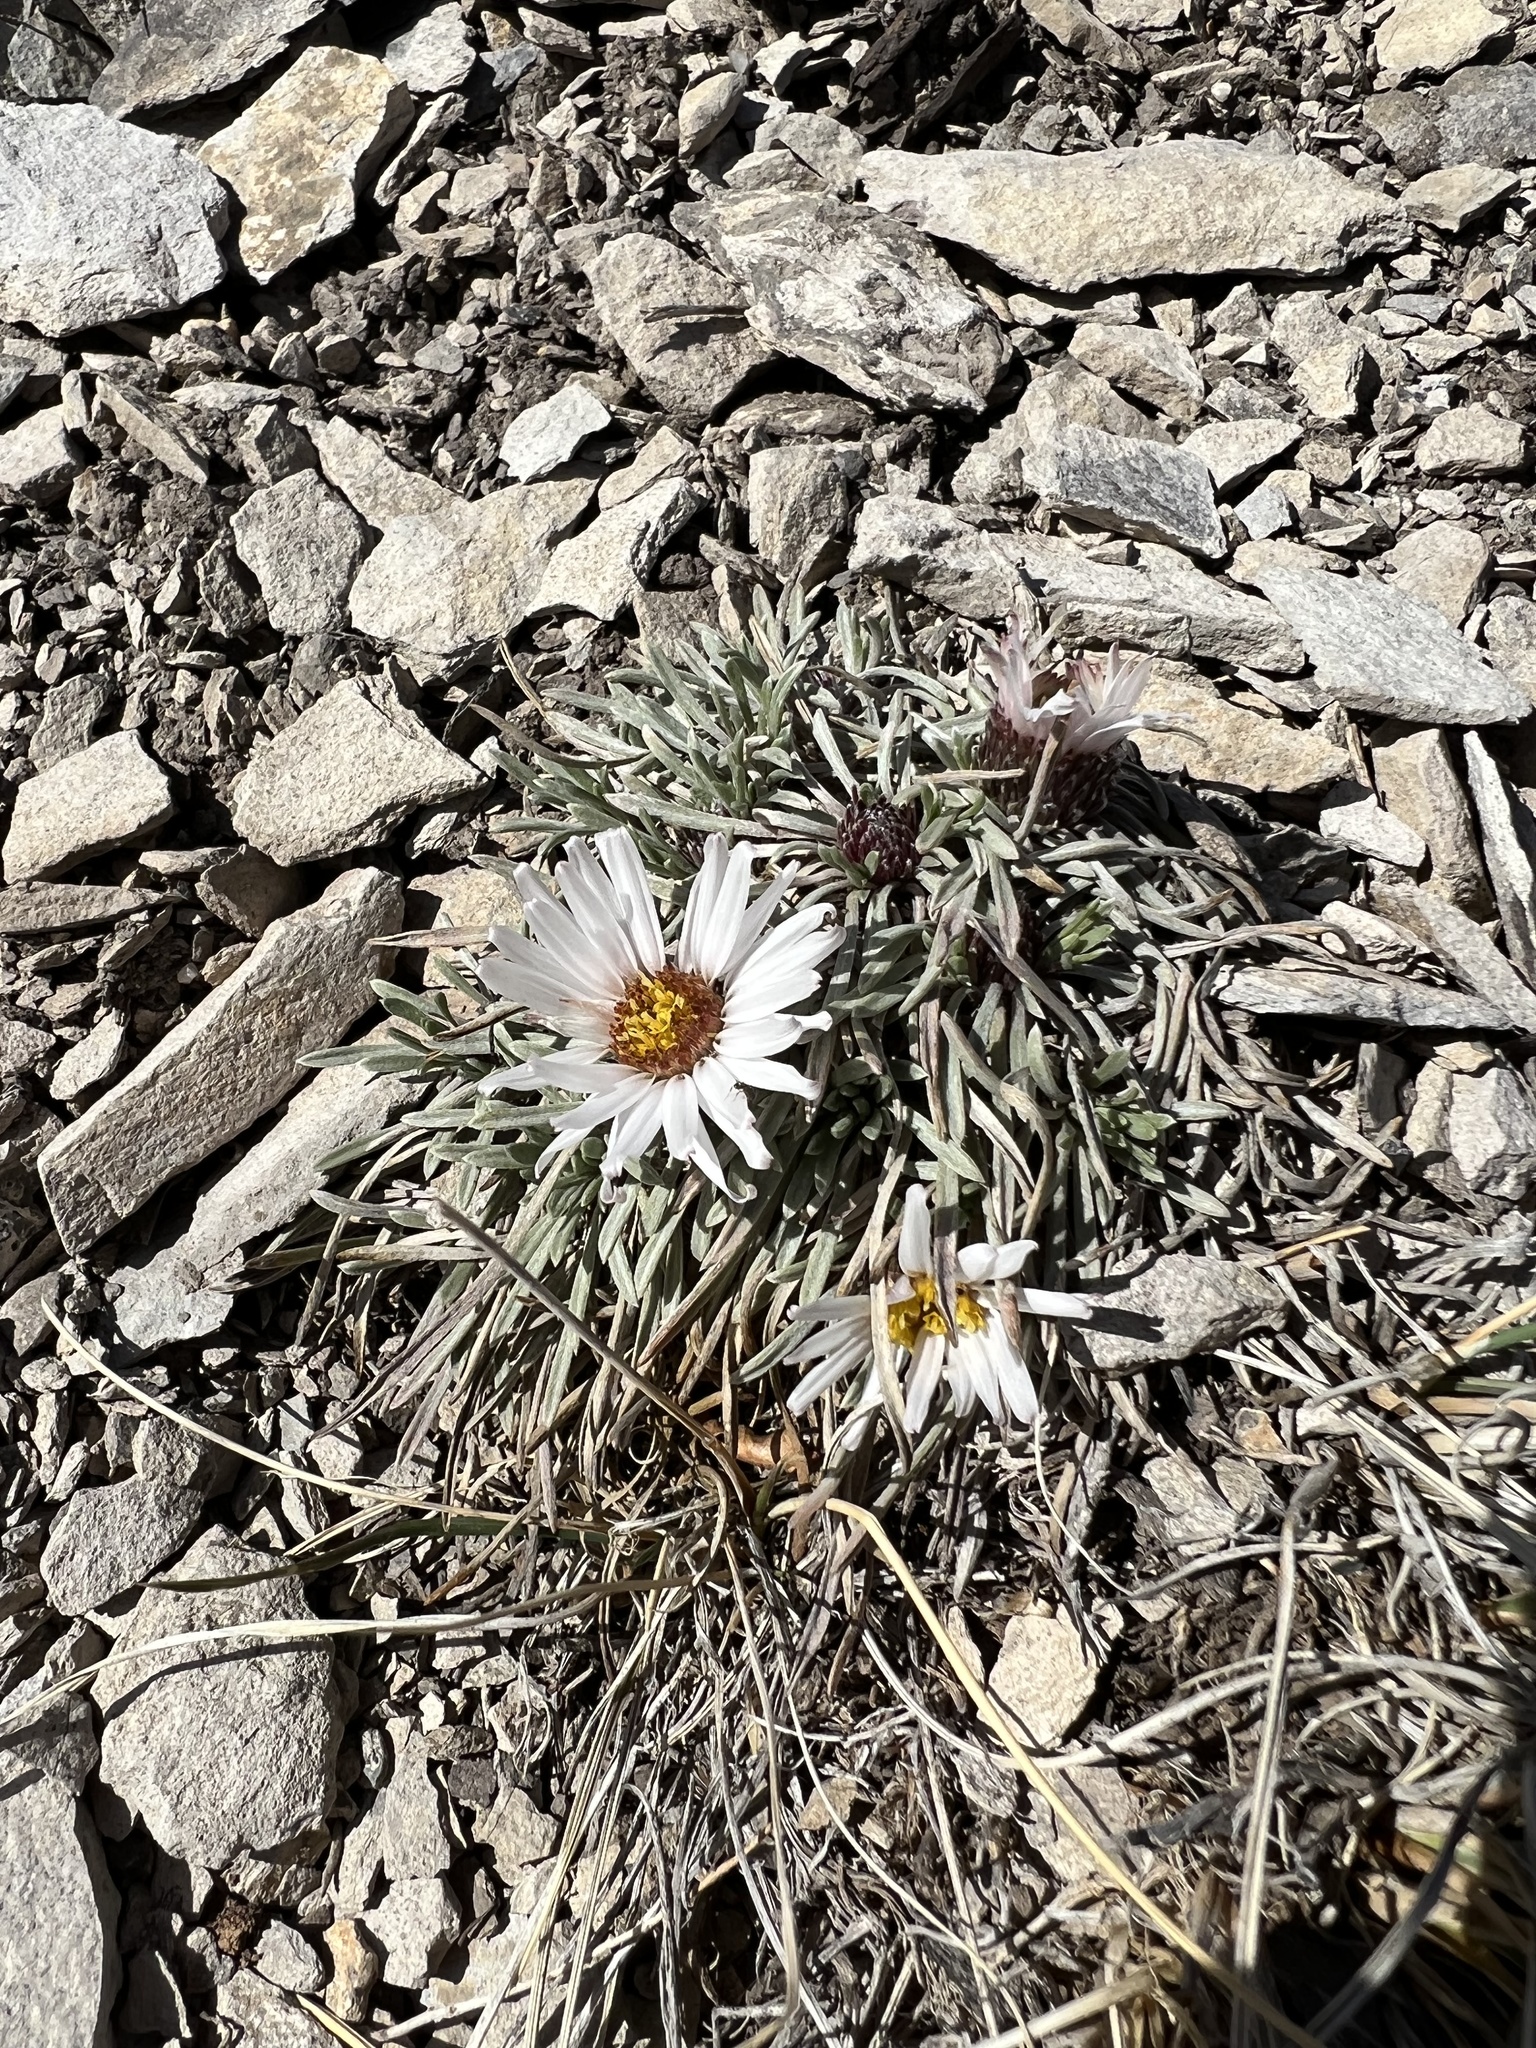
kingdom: Plantae
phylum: Tracheophyta
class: Magnoliopsida
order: Asterales
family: Asteraceae
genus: Townsendia
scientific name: Townsendia hookeri
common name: Hooker's townsend daisy
